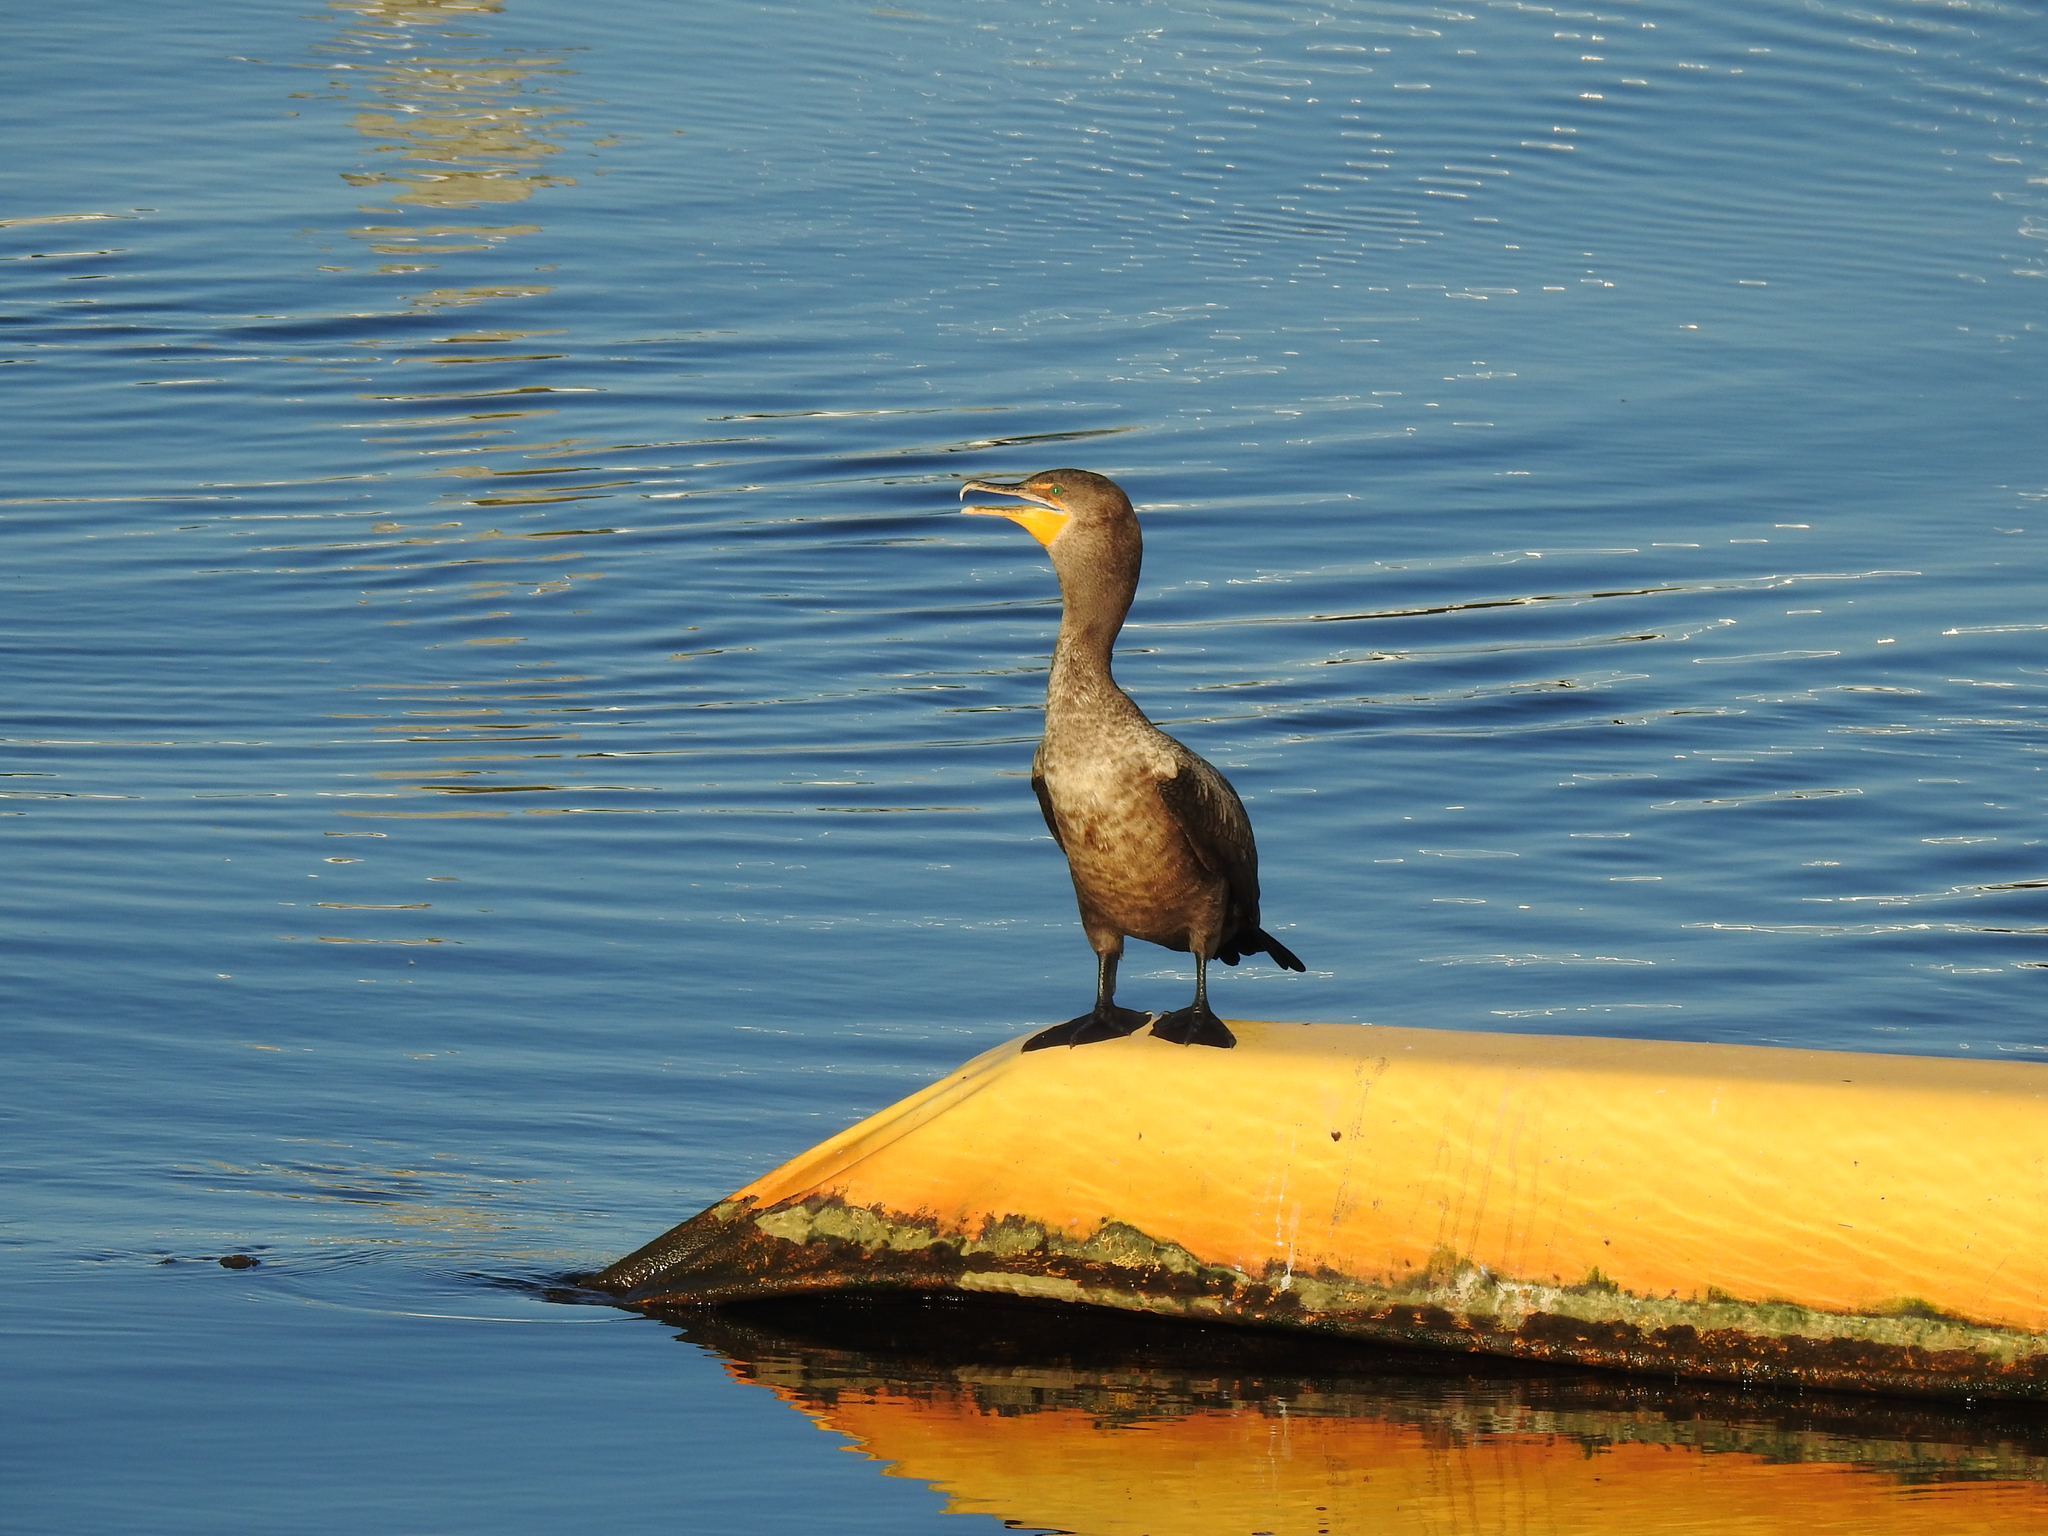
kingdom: Animalia
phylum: Chordata
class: Aves
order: Suliformes
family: Phalacrocoracidae
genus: Phalacrocorax
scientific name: Phalacrocorax auritus
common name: Double-crested cormorant
